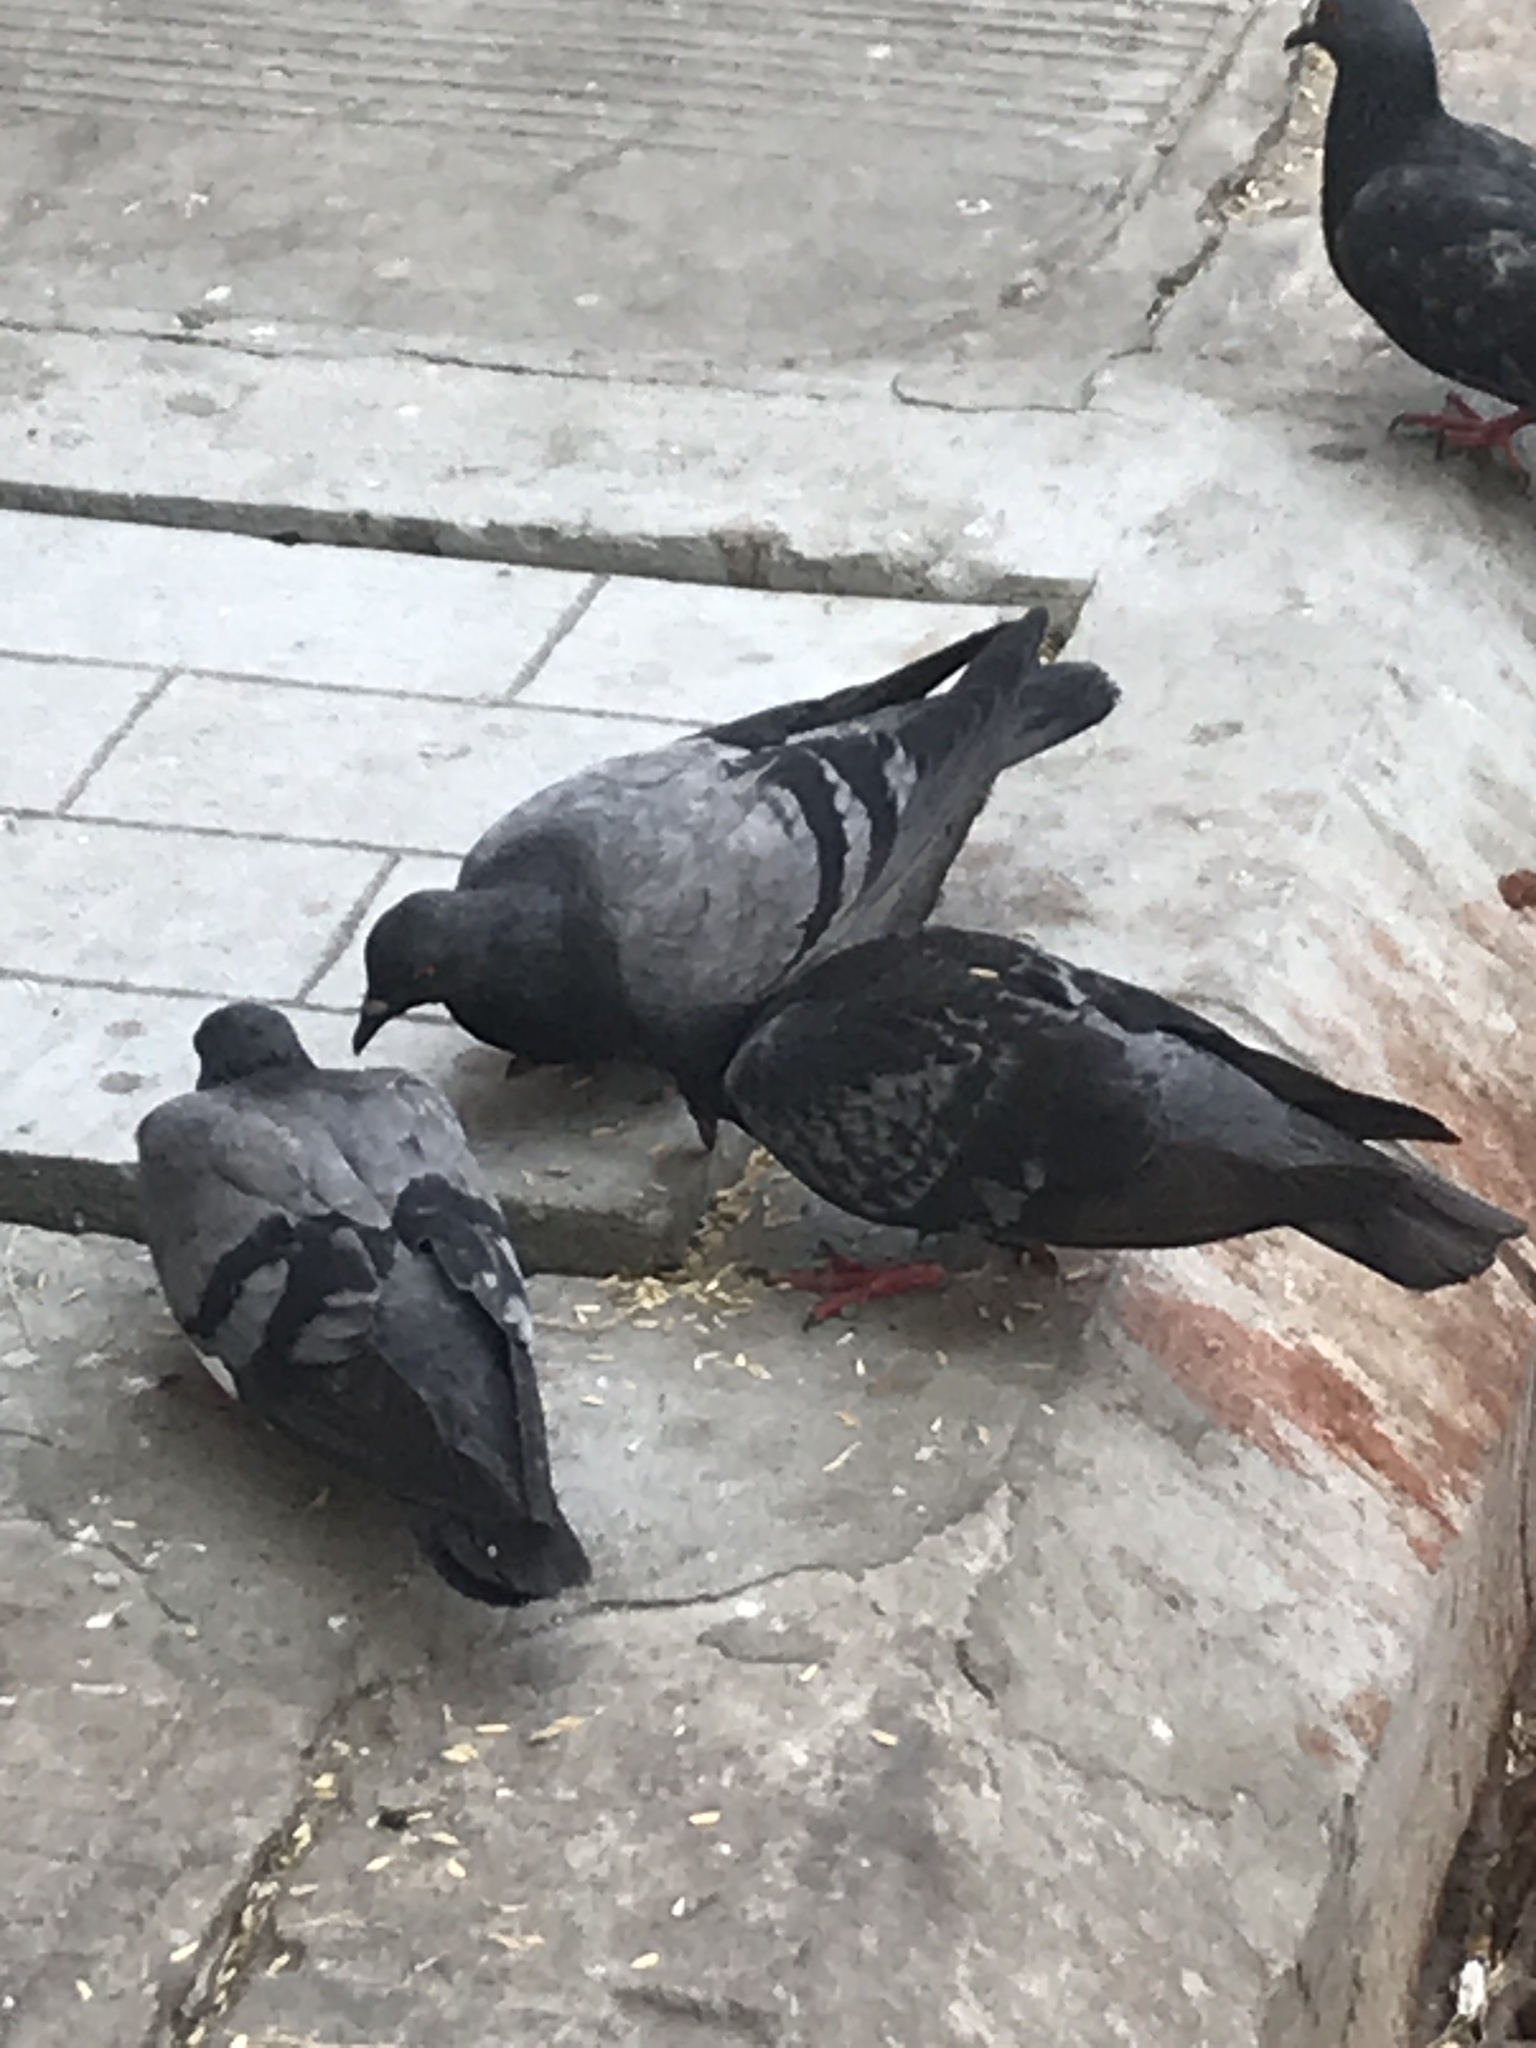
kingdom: Animalia
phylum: Chordata
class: Aves
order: Columbiformes
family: Columbidae
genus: Columba
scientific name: Columba livia
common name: Rock pigeon
